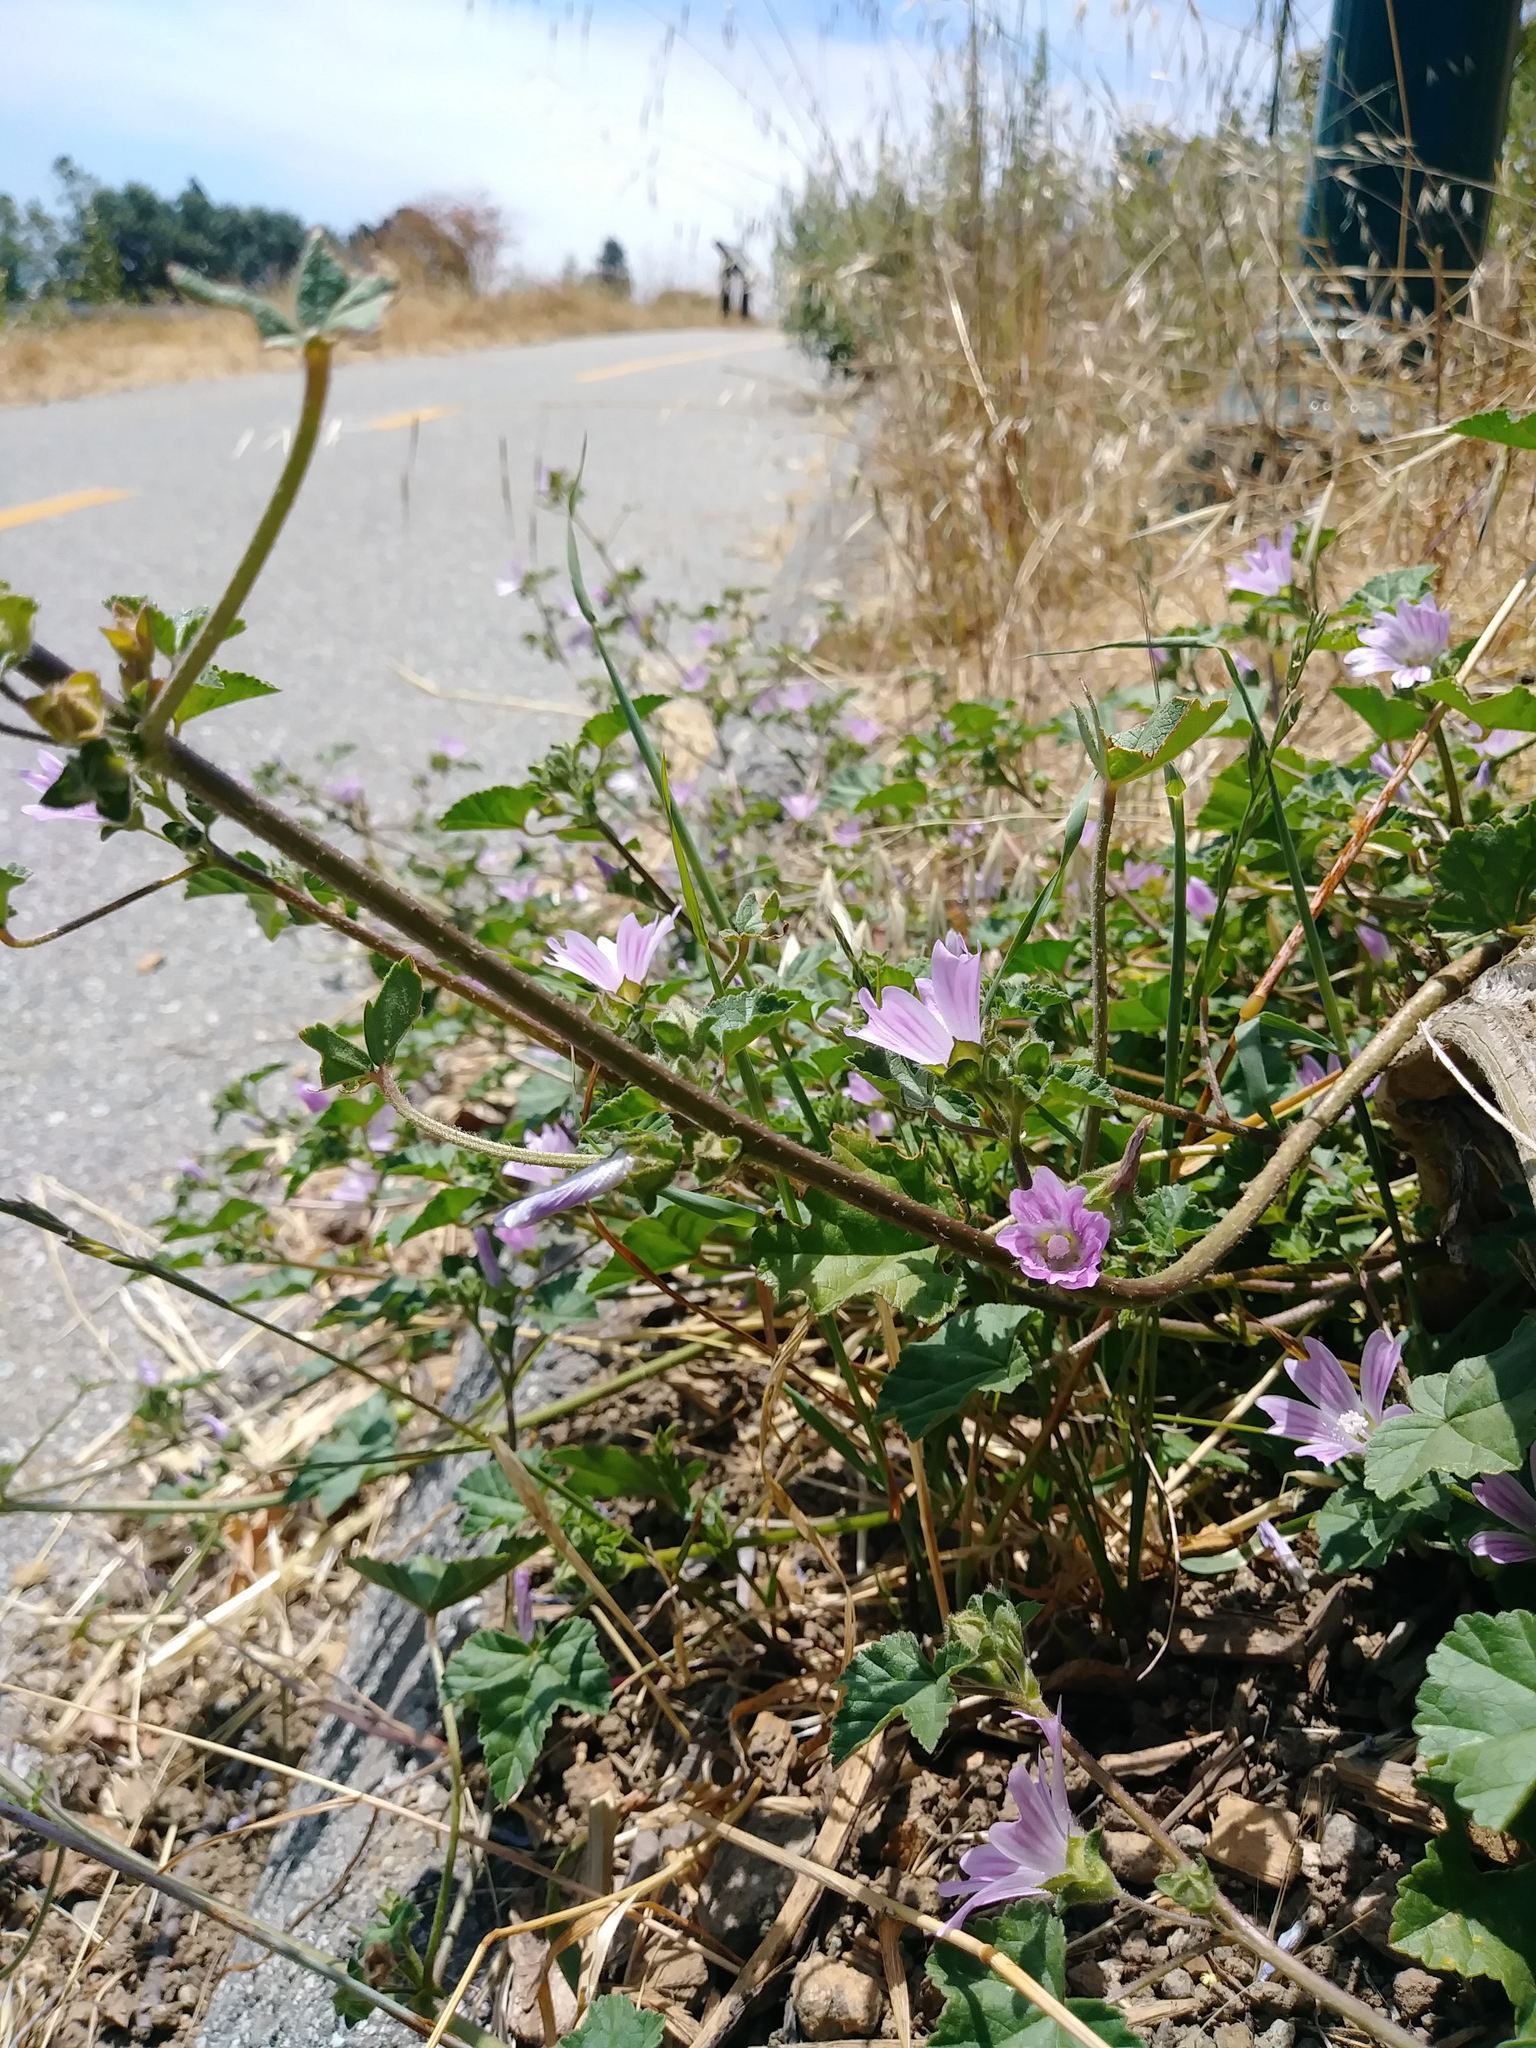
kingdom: Plantae
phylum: Tracheophyta
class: Magnoliopsida
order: Malvales
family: Malvaceae
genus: Malva
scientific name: Malva multiflora
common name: Cheeseweed
